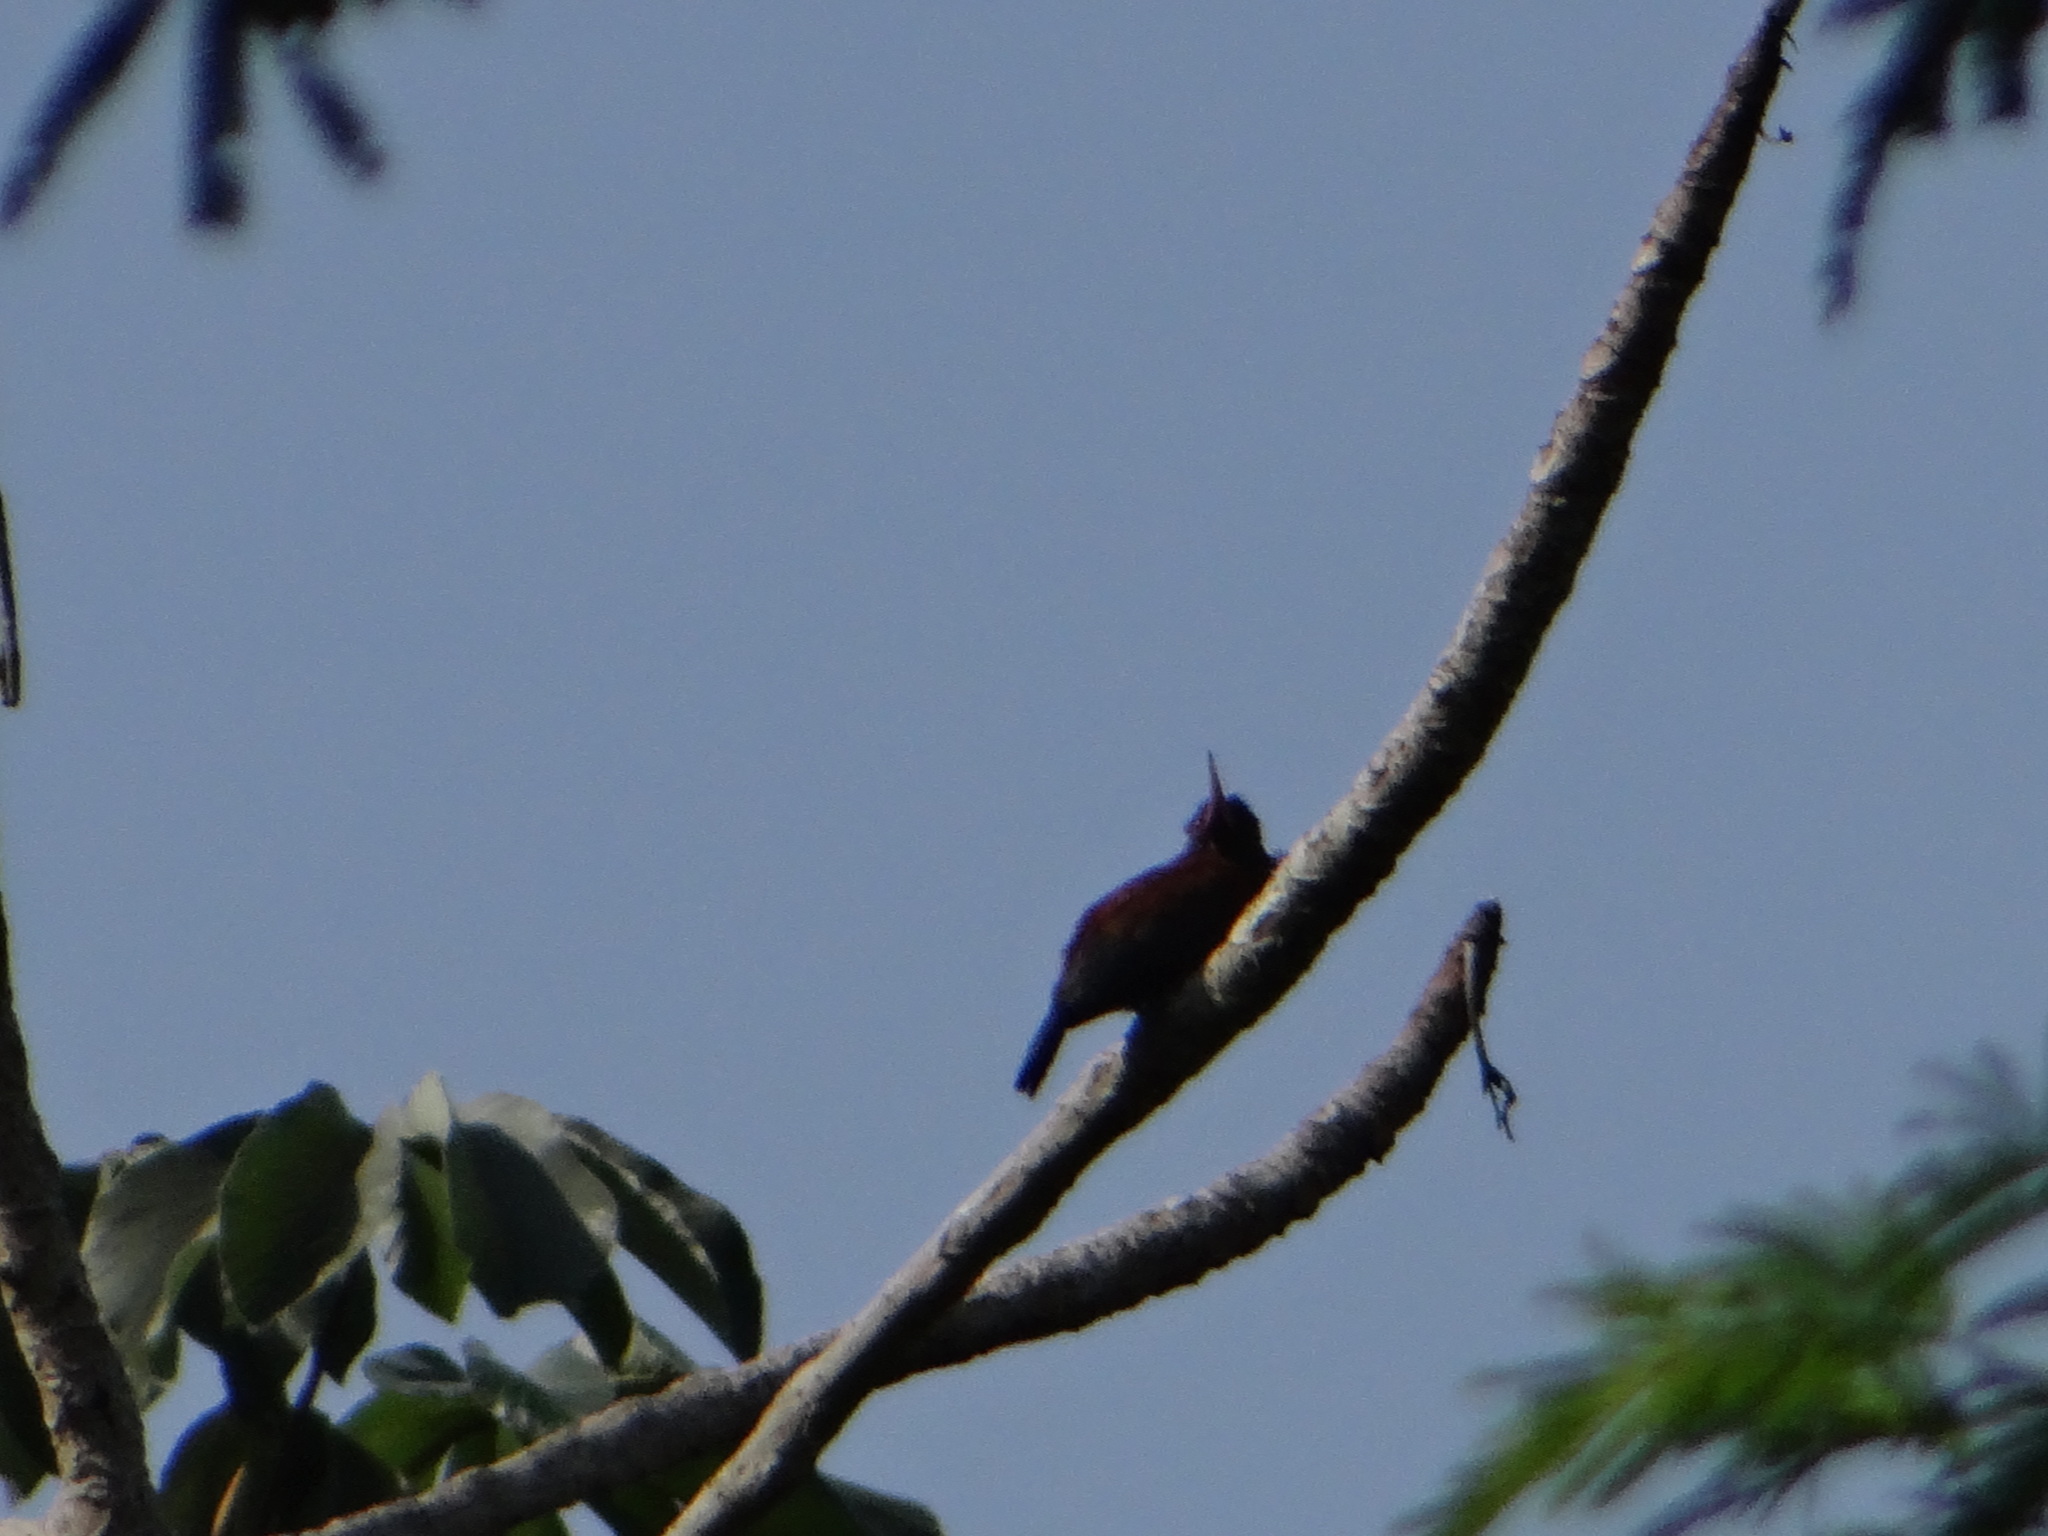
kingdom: Animalia
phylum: Chordata
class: Aves
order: Piciformes
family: Galbulidae
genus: Galbalcyrhynchus
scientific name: Galbalcyrhynchus purusianus
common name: Purus jacamar
